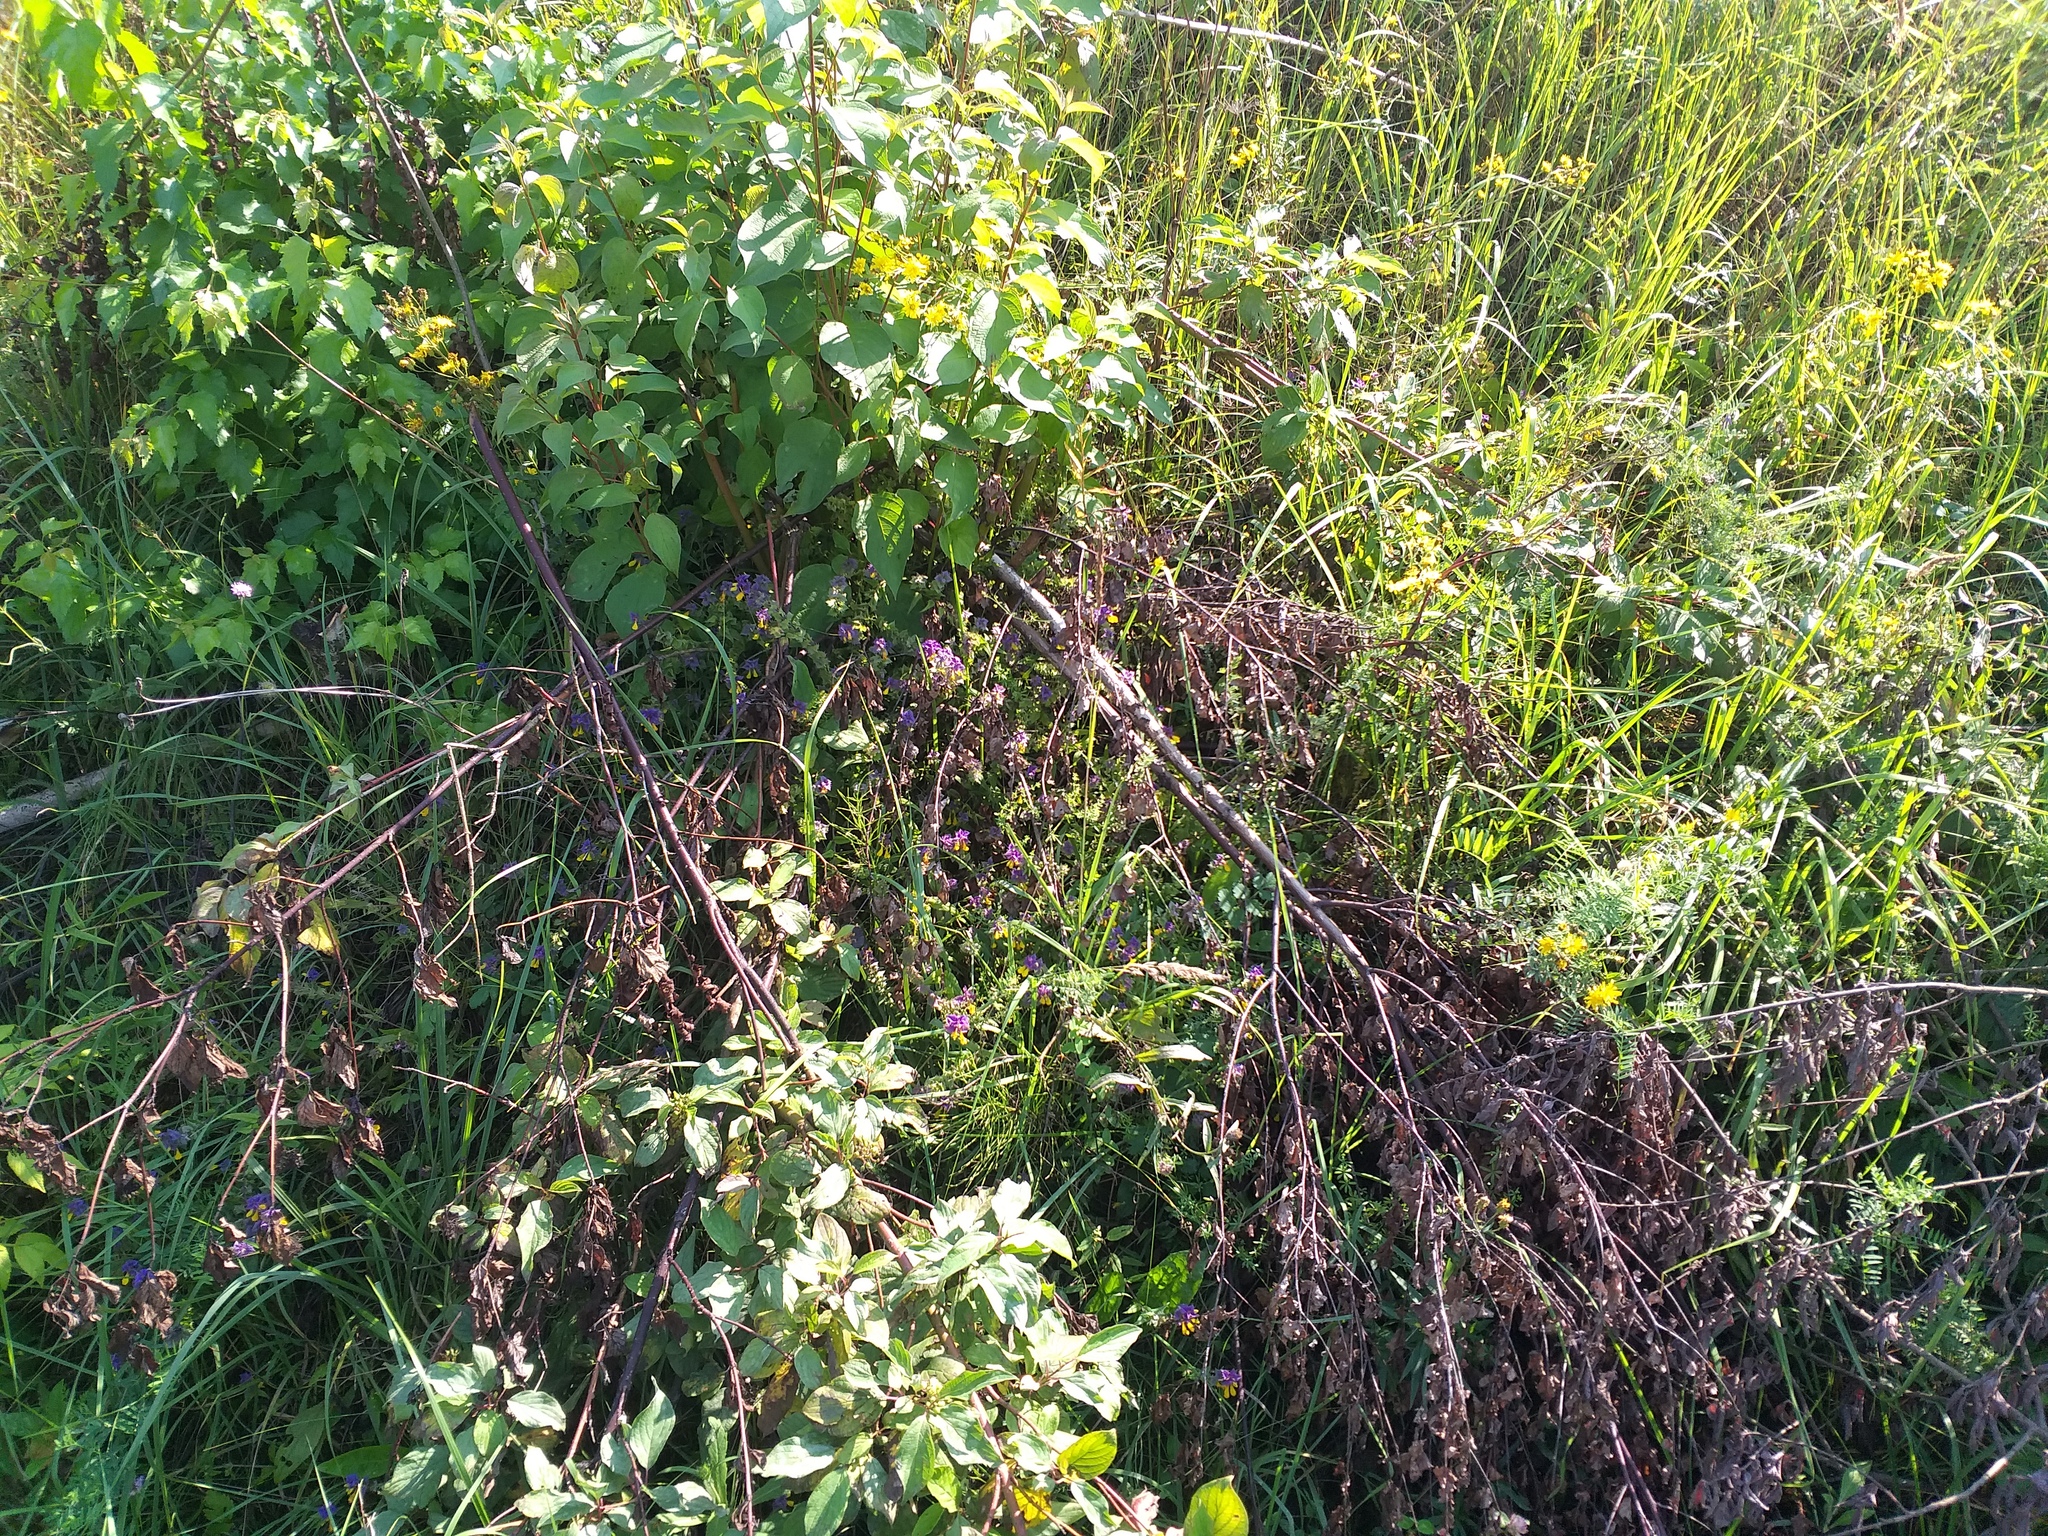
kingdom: Plantae
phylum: Tracheophyta
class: Magnoliopsida
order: Lamiales
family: Orobanchaceae
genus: Melampyrum
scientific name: Melampyrum nemorosum
